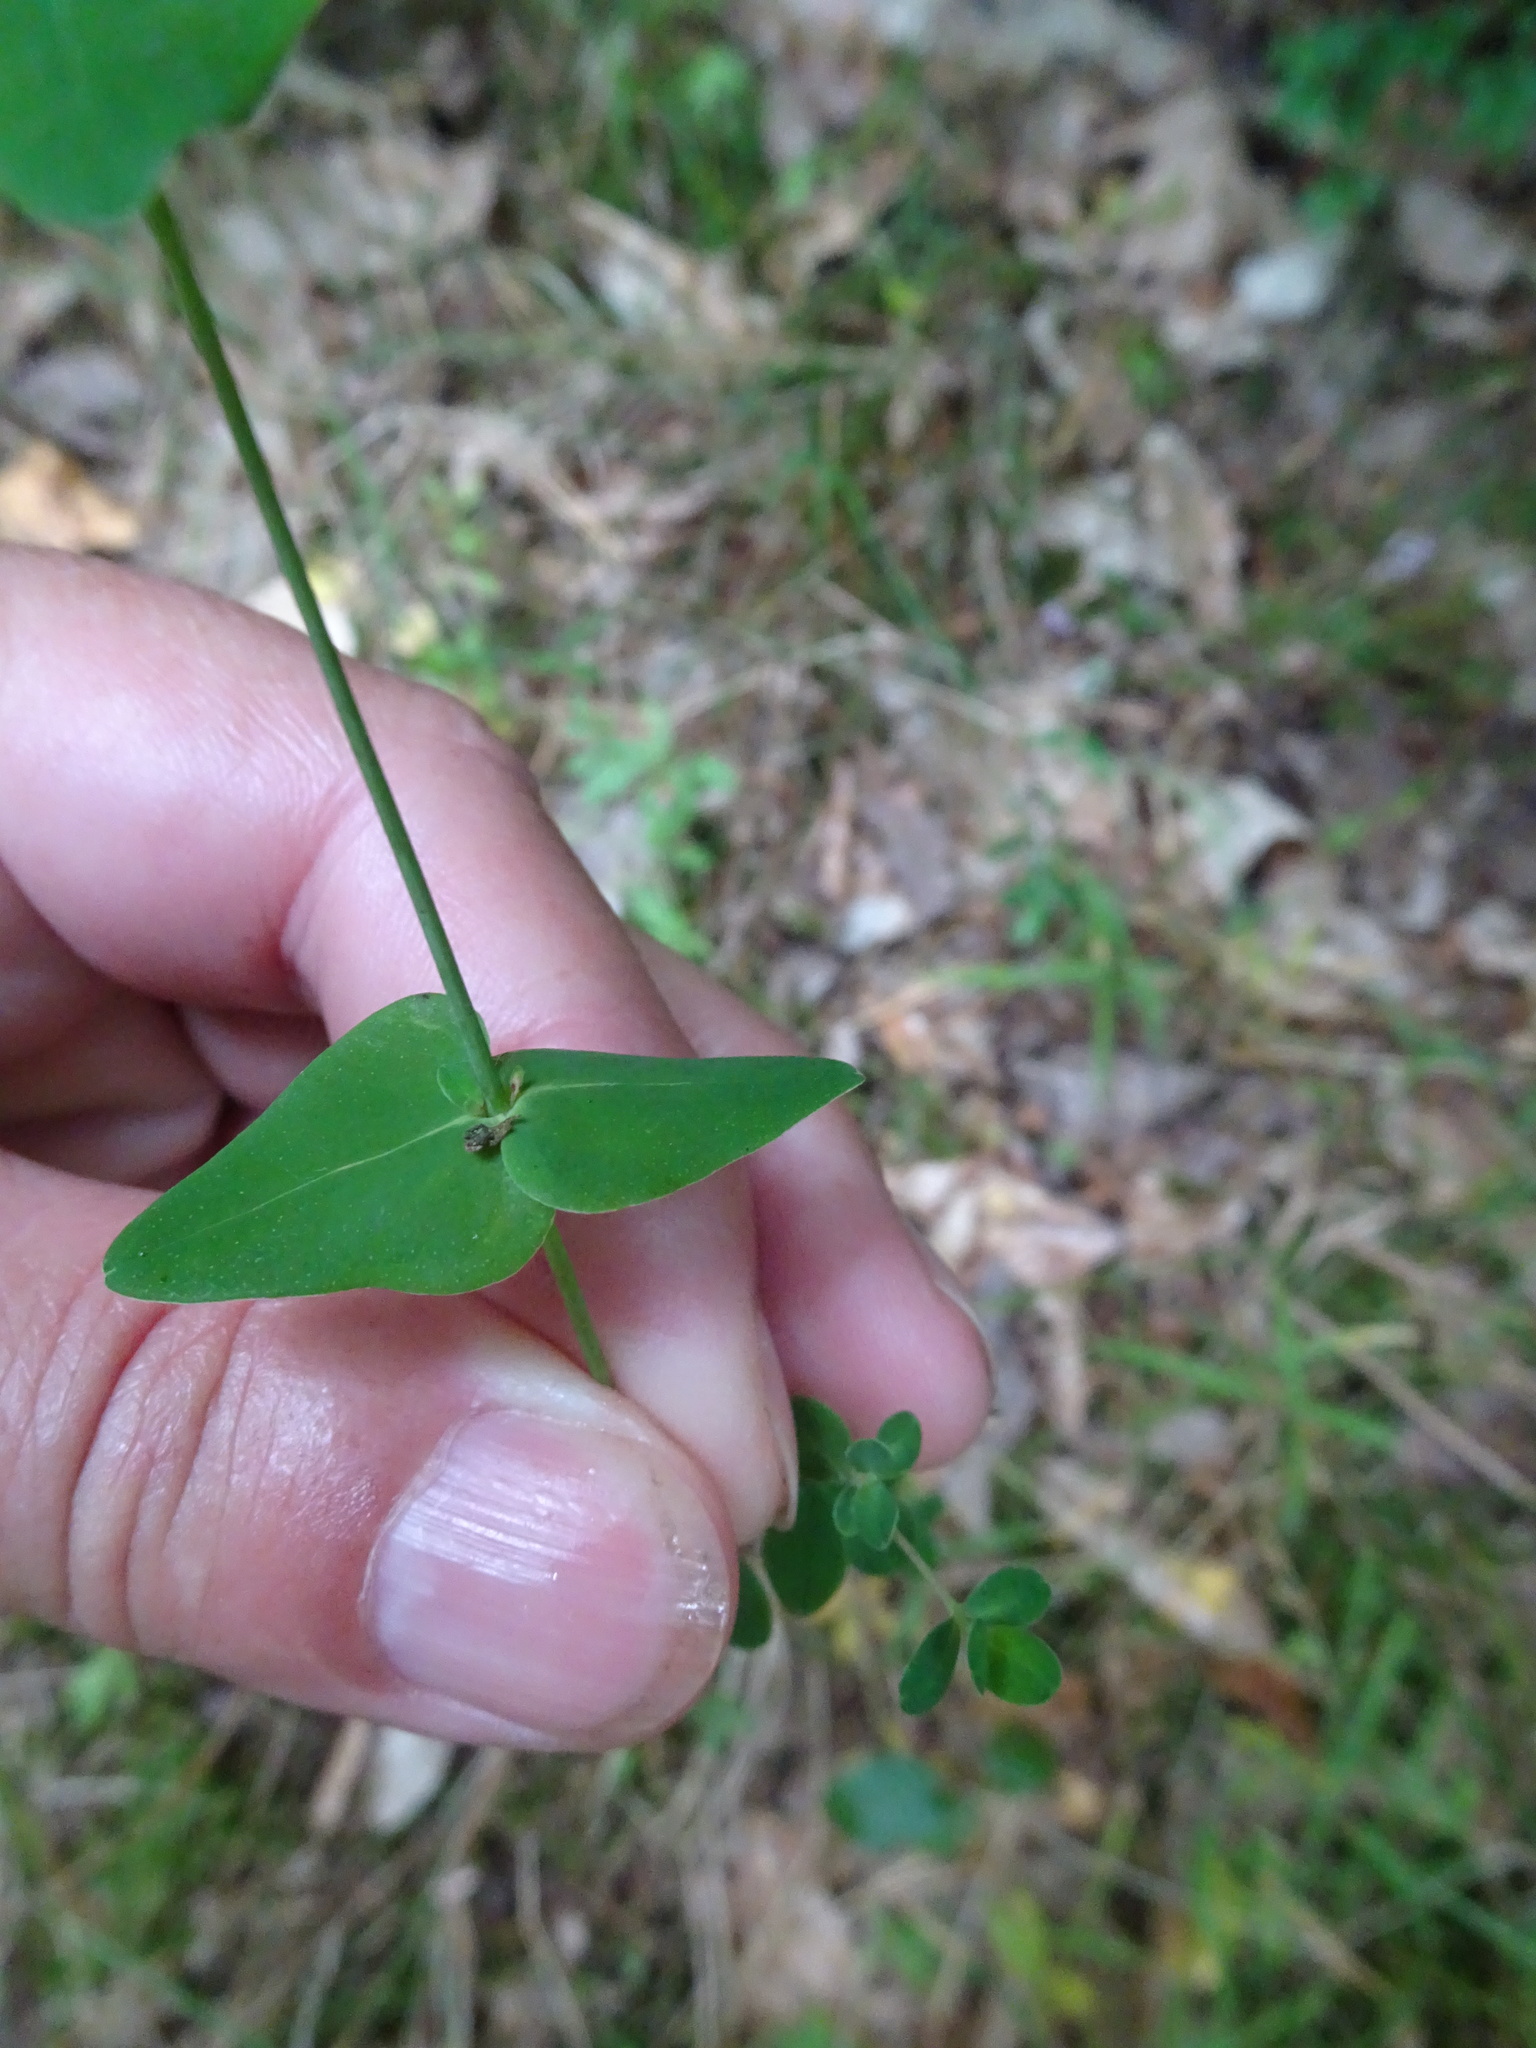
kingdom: Plantae
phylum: Tracheophyta
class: Magnoliopsida
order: Malpighiales
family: Hypericaceae
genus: Hypericum
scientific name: Hypericum pulchrum
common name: Slender st. john's-wort
